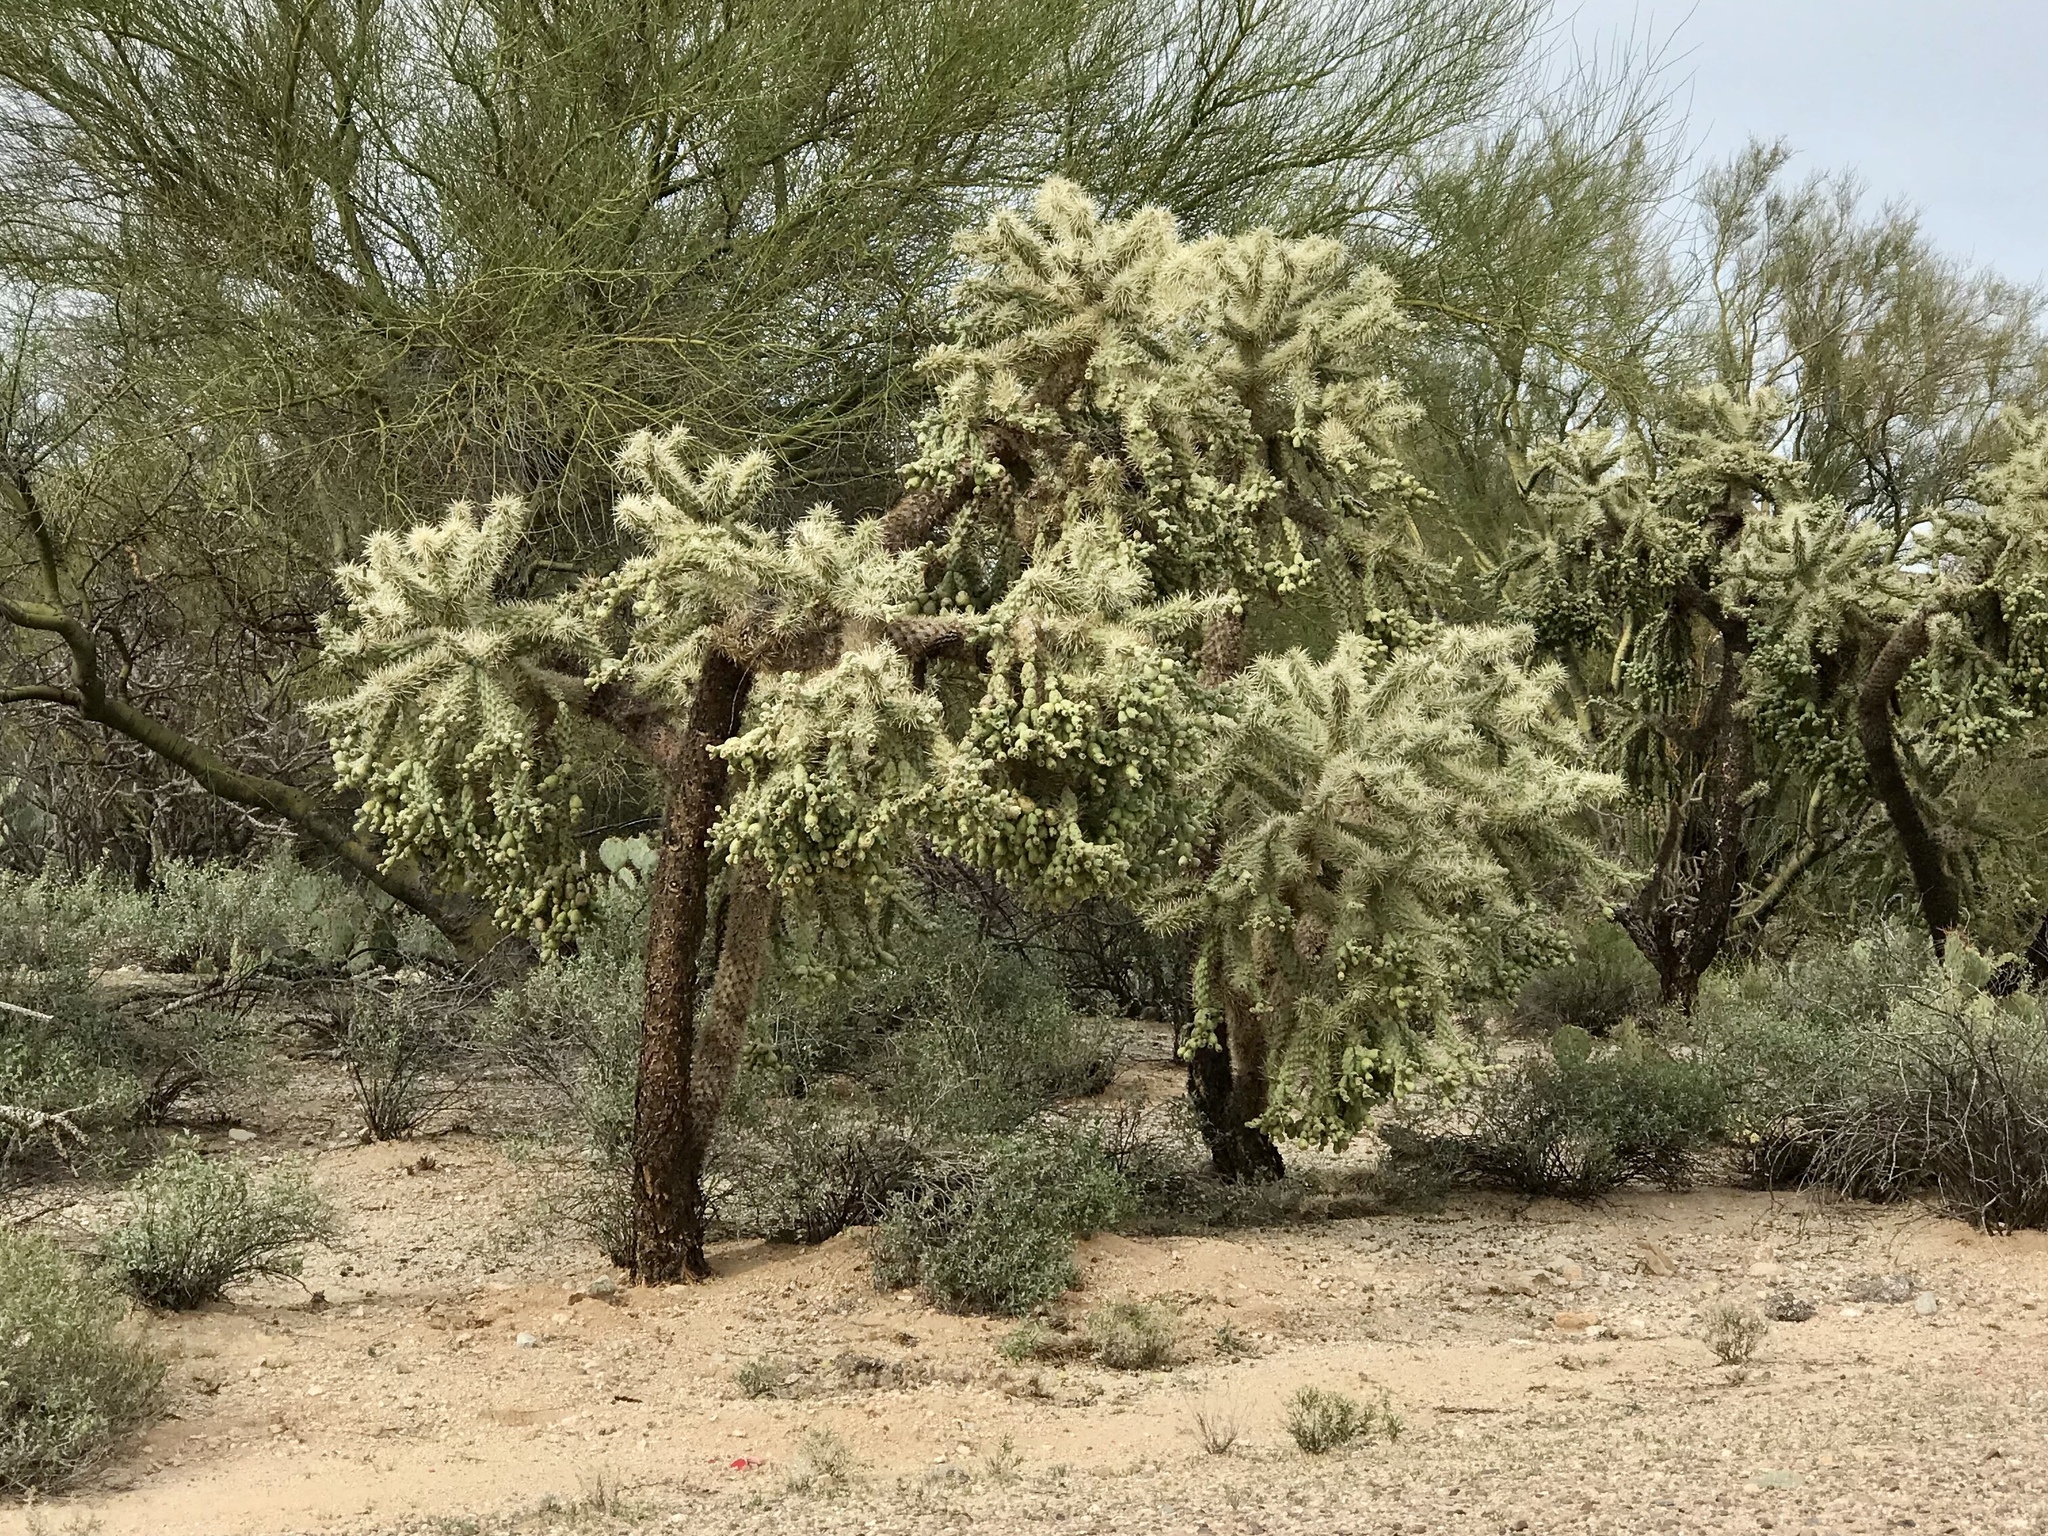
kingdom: Plantae
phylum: Tracheophyta
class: Magnoliopsida
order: Caryophyllales
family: Cactaceae
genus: Cylindropuntia
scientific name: Cylindropuntia fulgida
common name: Jumping cholla
